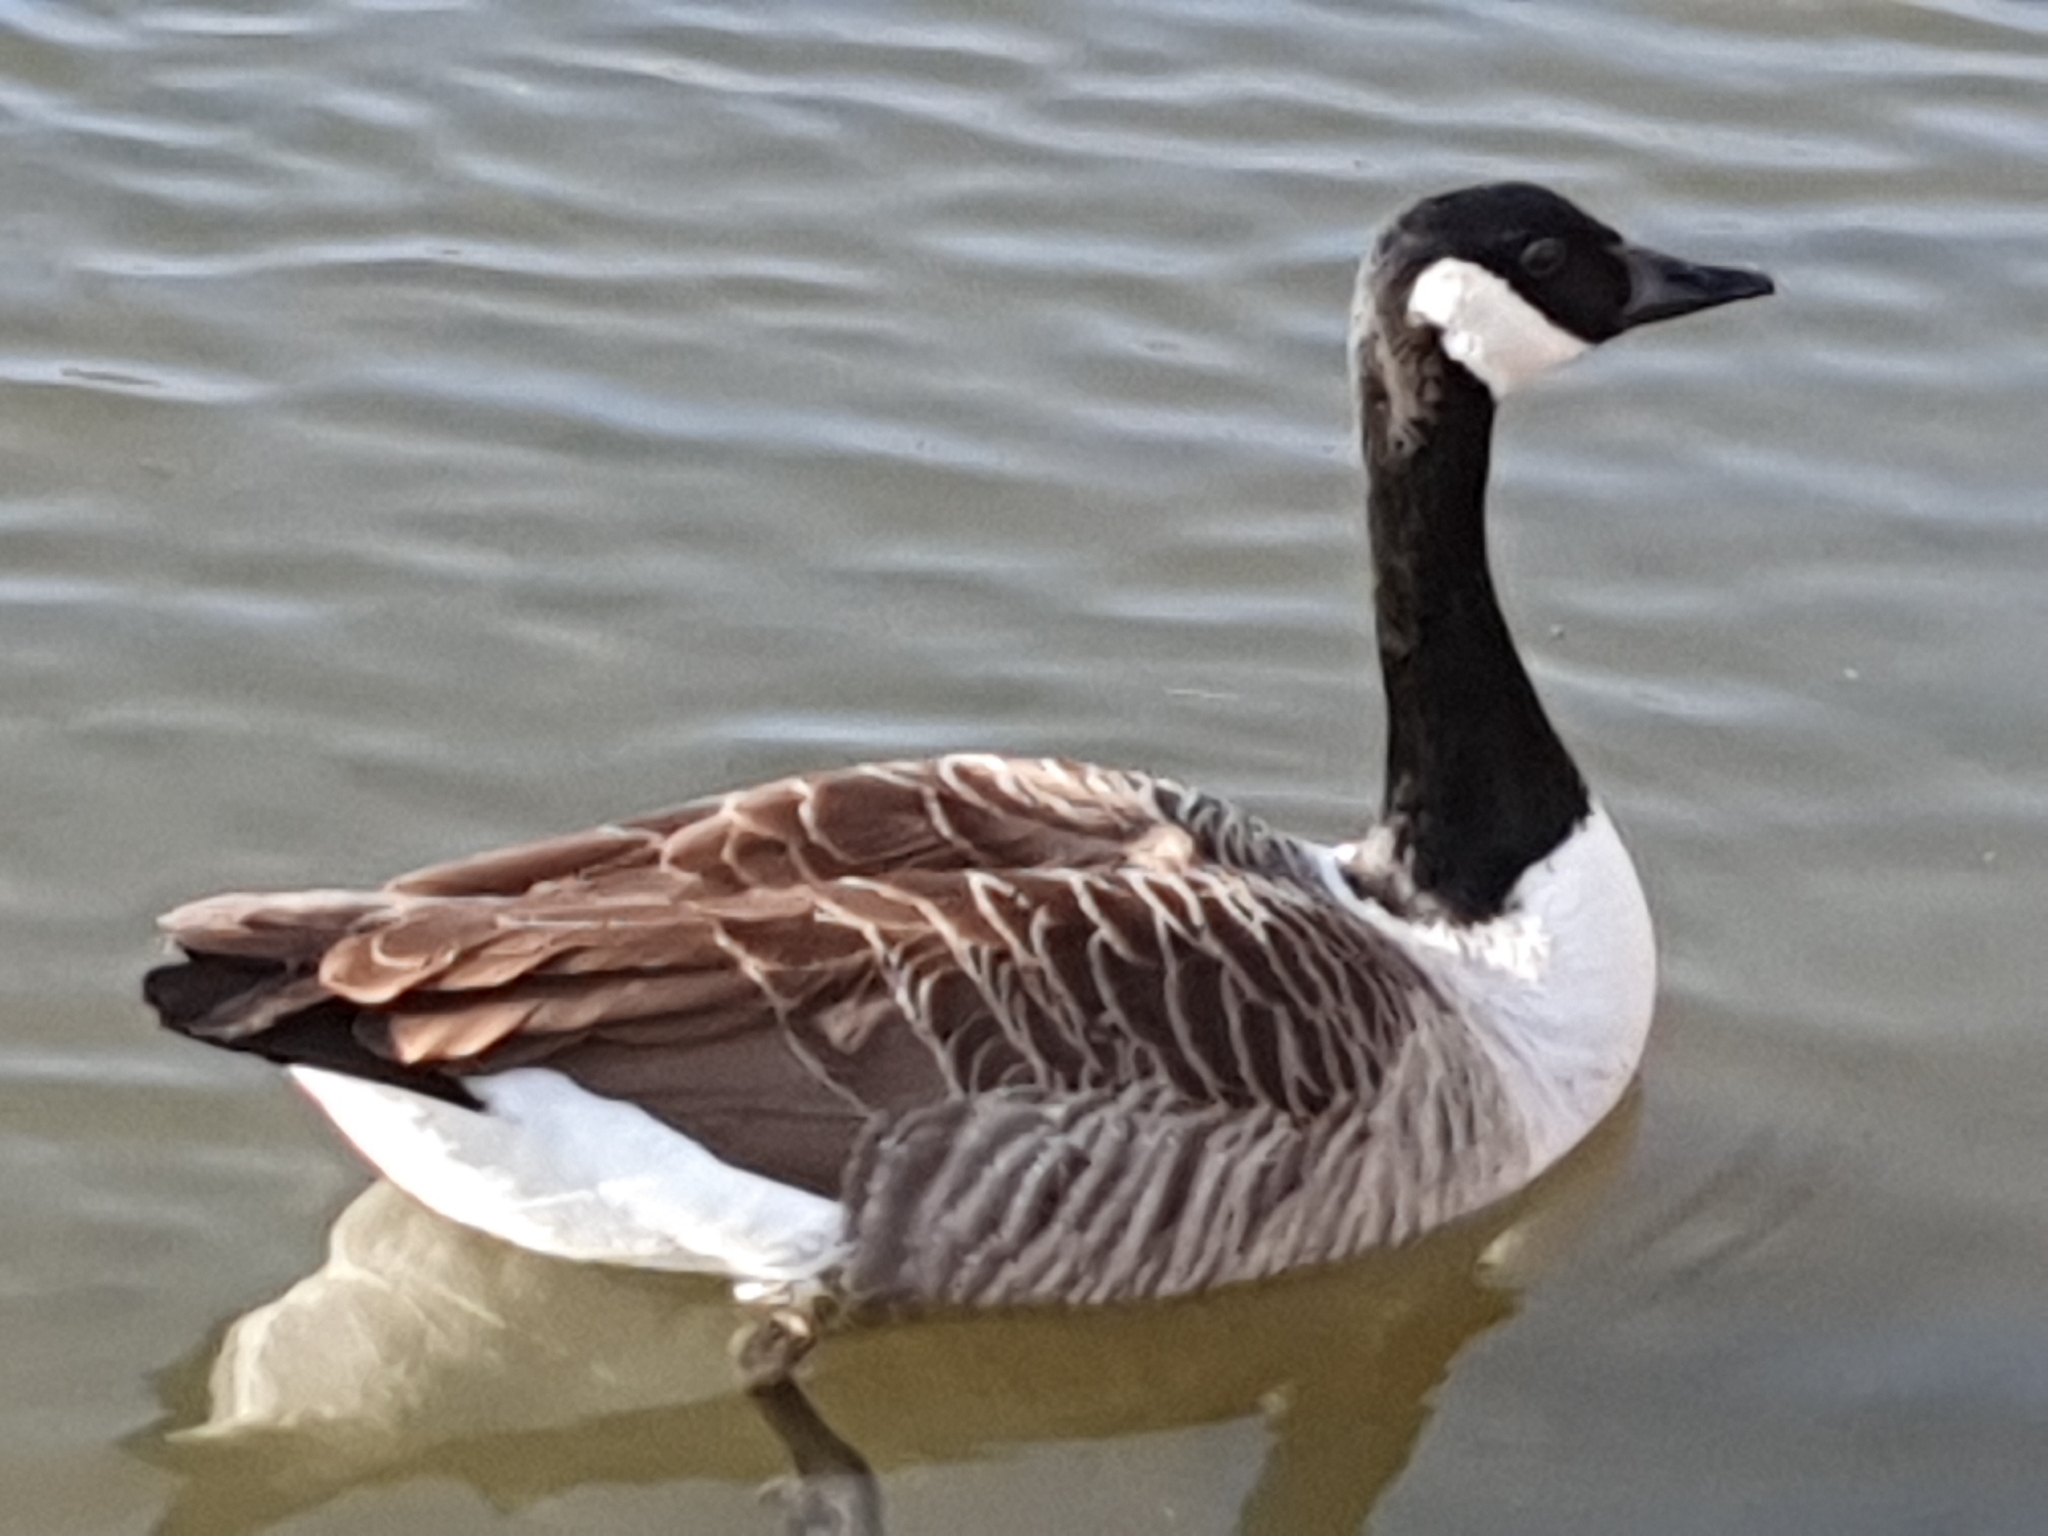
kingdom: Animalia
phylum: Chordata
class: Aves
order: Anseriformes
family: Anatidae
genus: Branta
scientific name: Branta canadensis
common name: Canada goose
